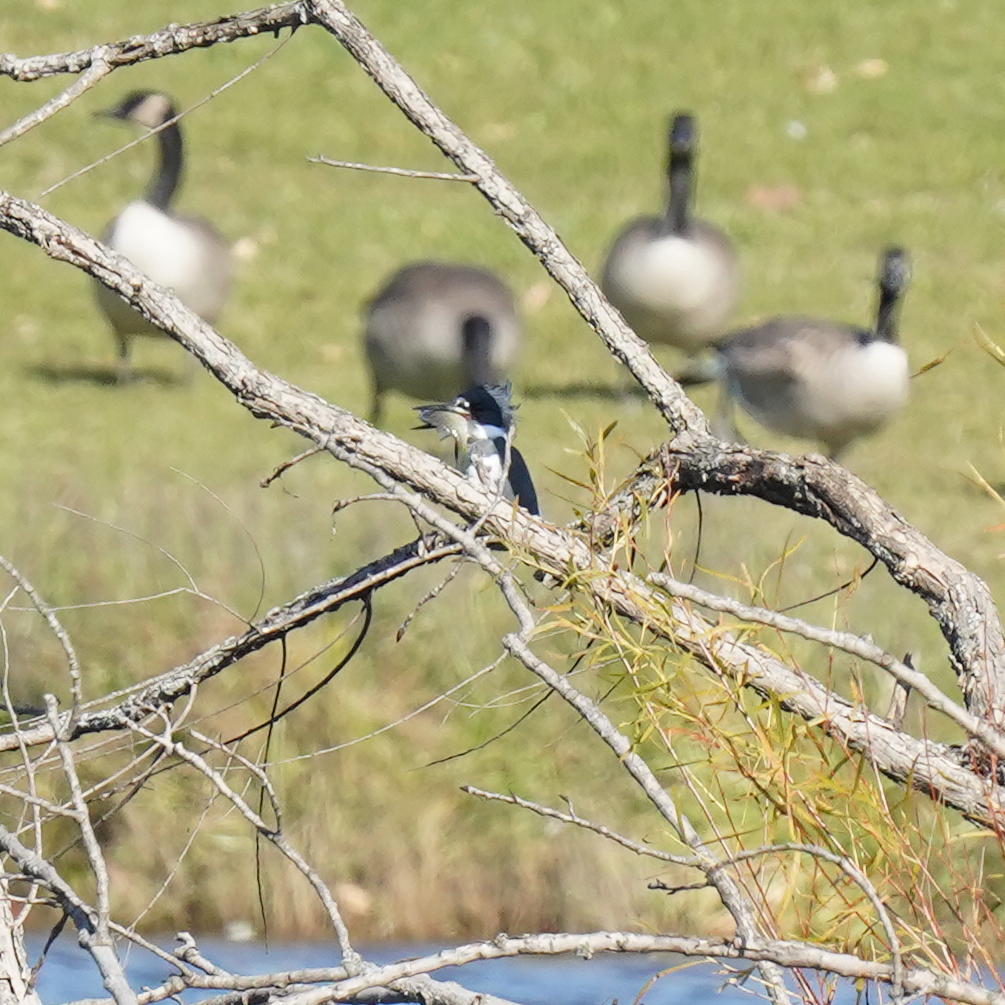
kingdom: Animalia
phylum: Chordata
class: Aves
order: Coraciiformes
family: Alcedinidae
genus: Megaceryle
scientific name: Megaceryle alcyon
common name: Belted kingfisher
